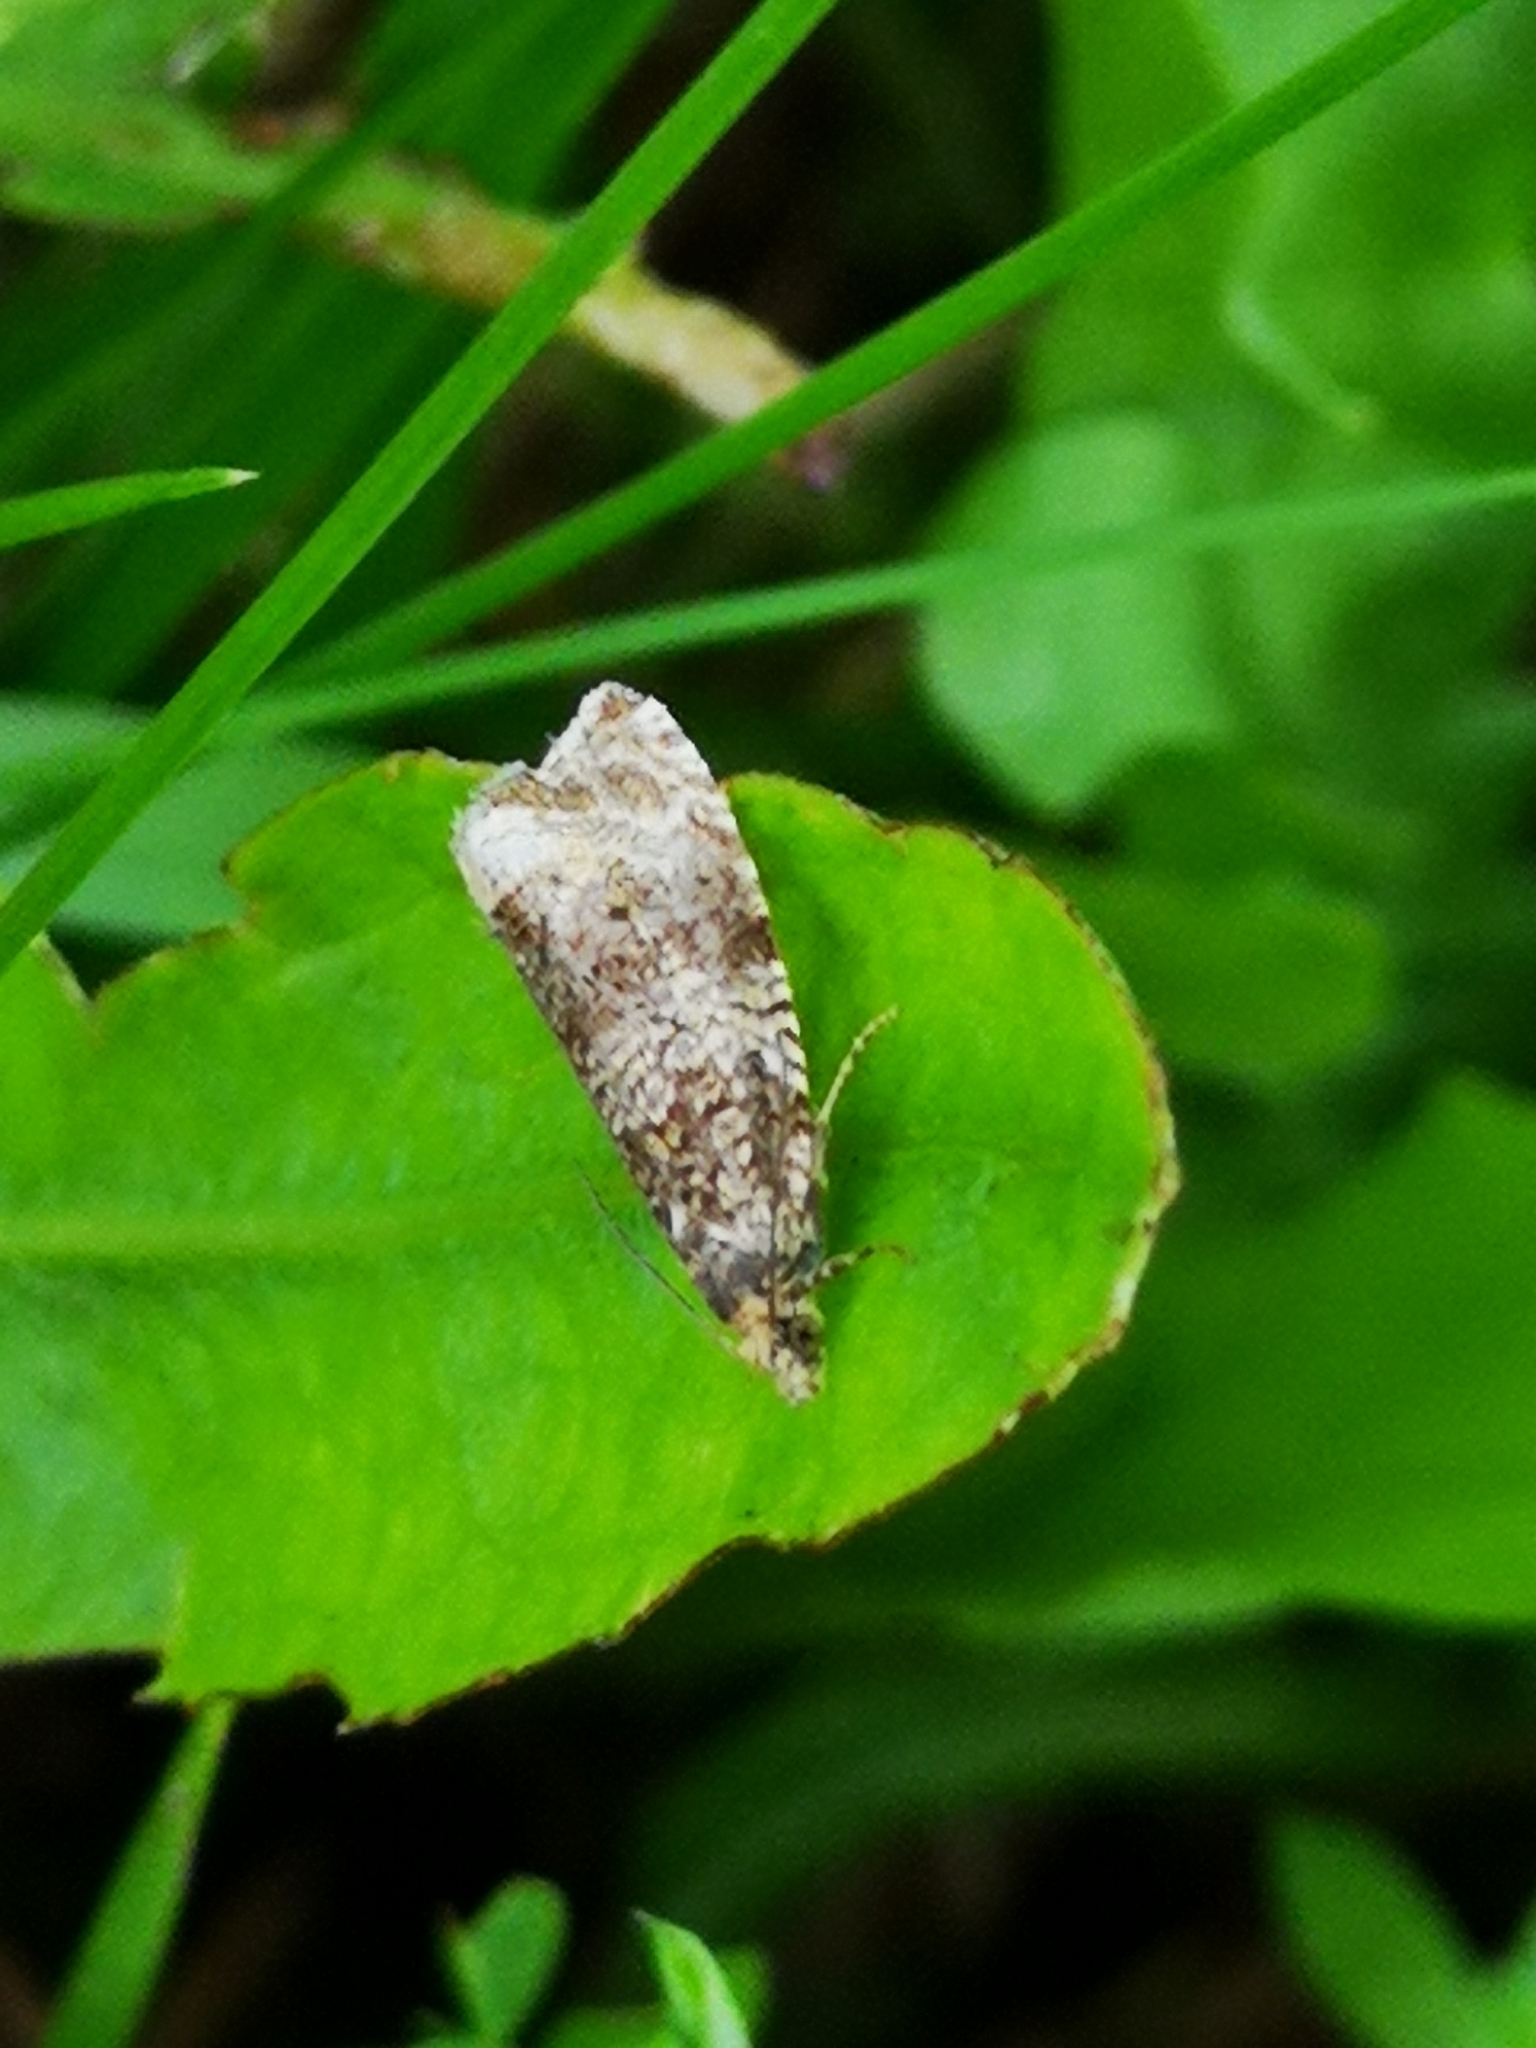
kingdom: Animalia
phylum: Arthropoda
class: Insecta
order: Lepidoptera
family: Tortricidae
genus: Syricoris
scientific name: Syricoris lacunana
